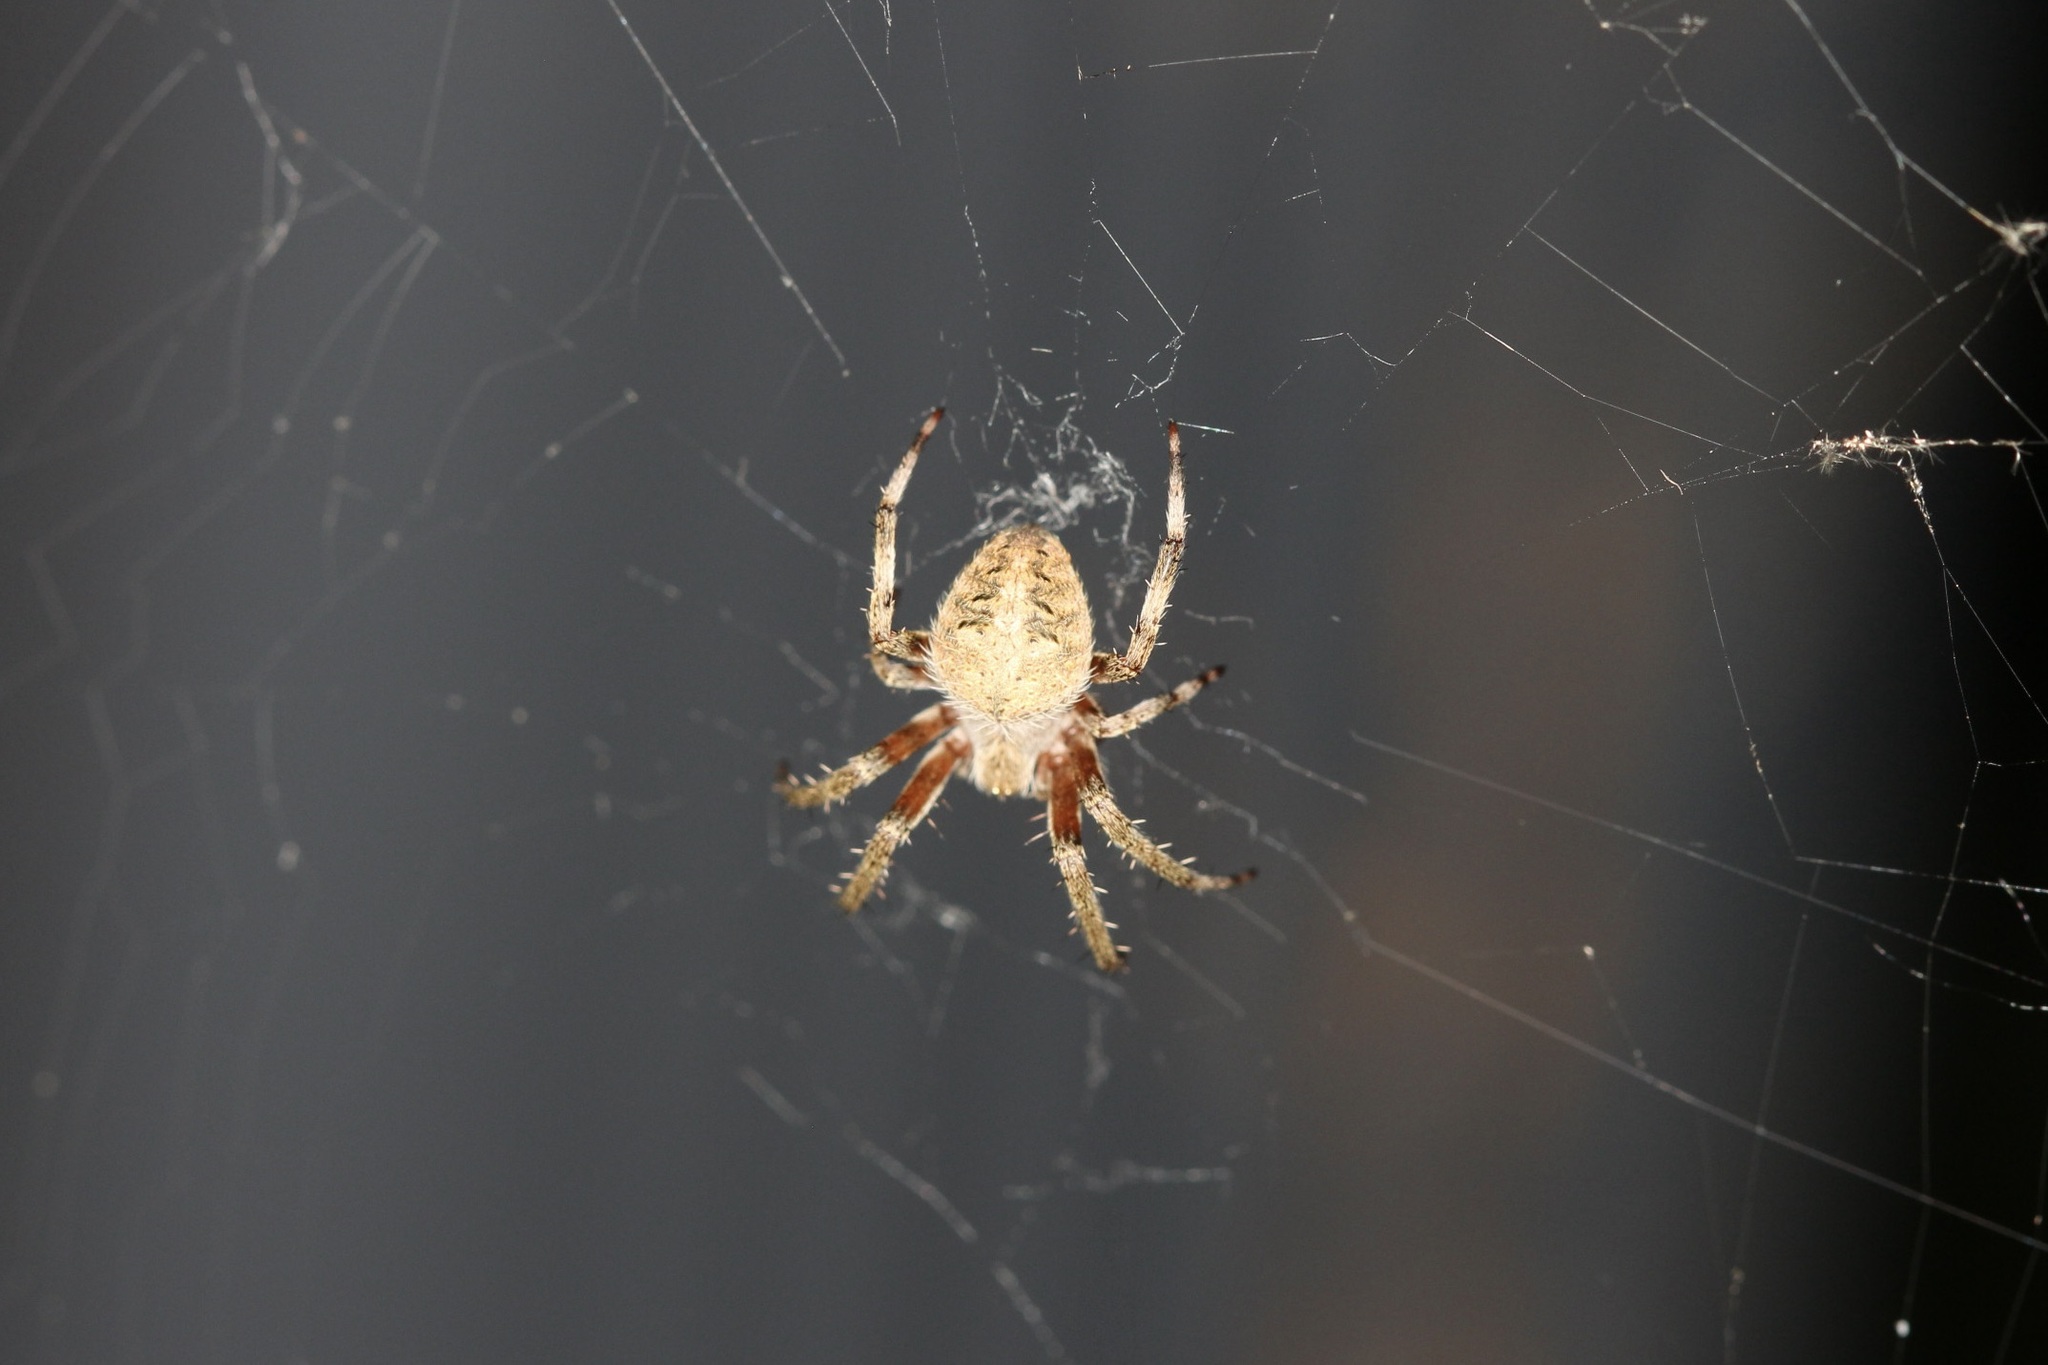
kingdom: Animalia
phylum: Arthropoda
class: Arachnida
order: Araneae
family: Araneidae
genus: Neoscona
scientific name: Neoscona crucifera
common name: Spotted orbweaver
